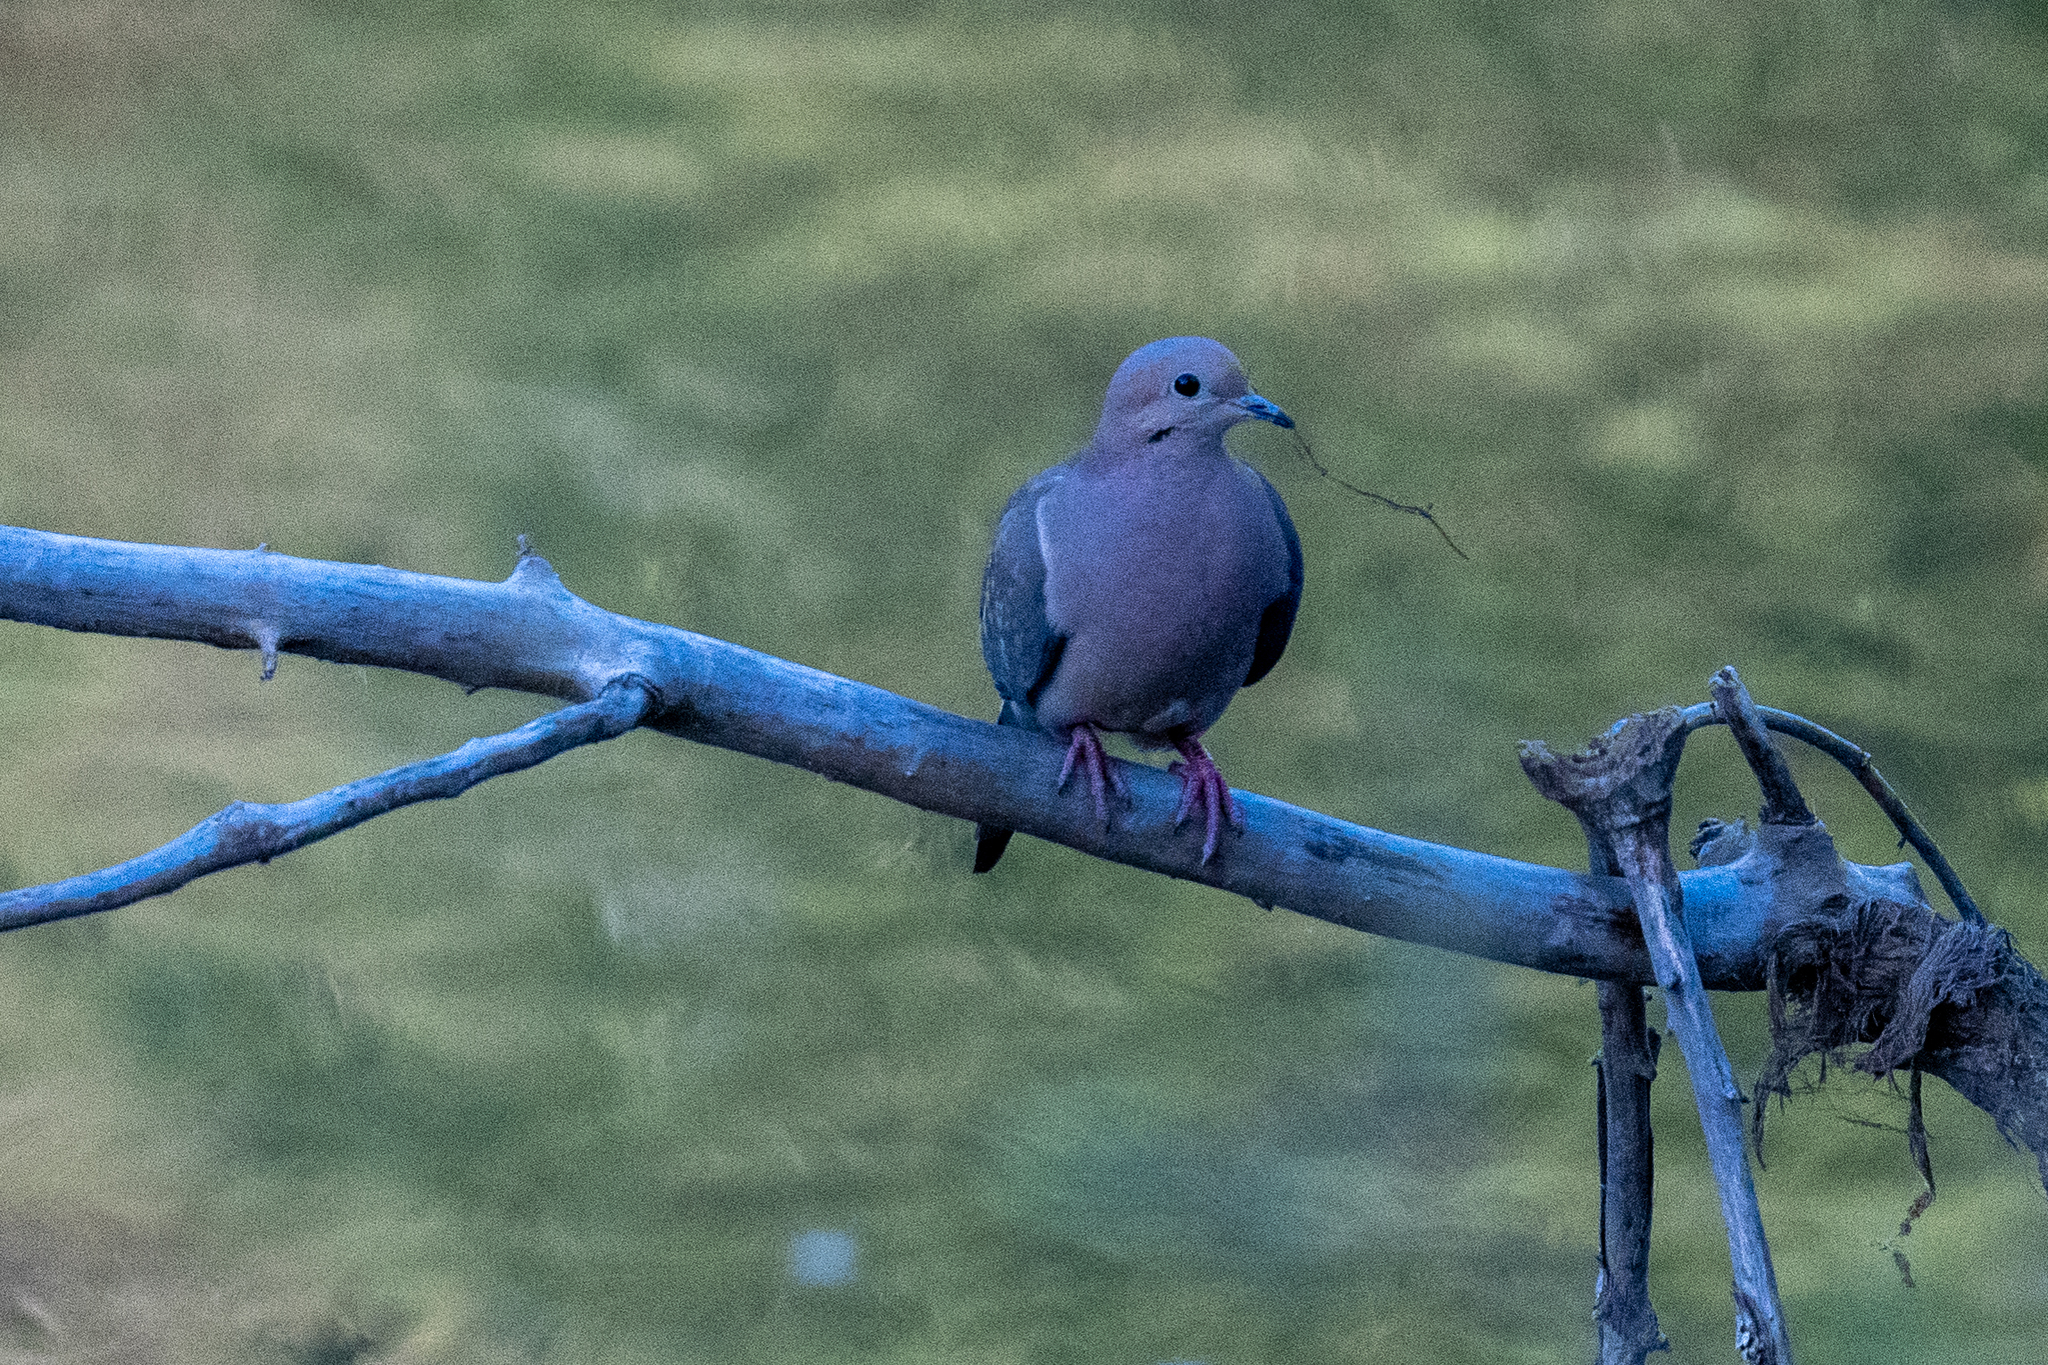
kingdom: Animalia
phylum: Chordata
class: Aves
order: Columbiformes
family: Columbidae
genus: Zenaida
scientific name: Zenaida macroura
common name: Mourning dove
